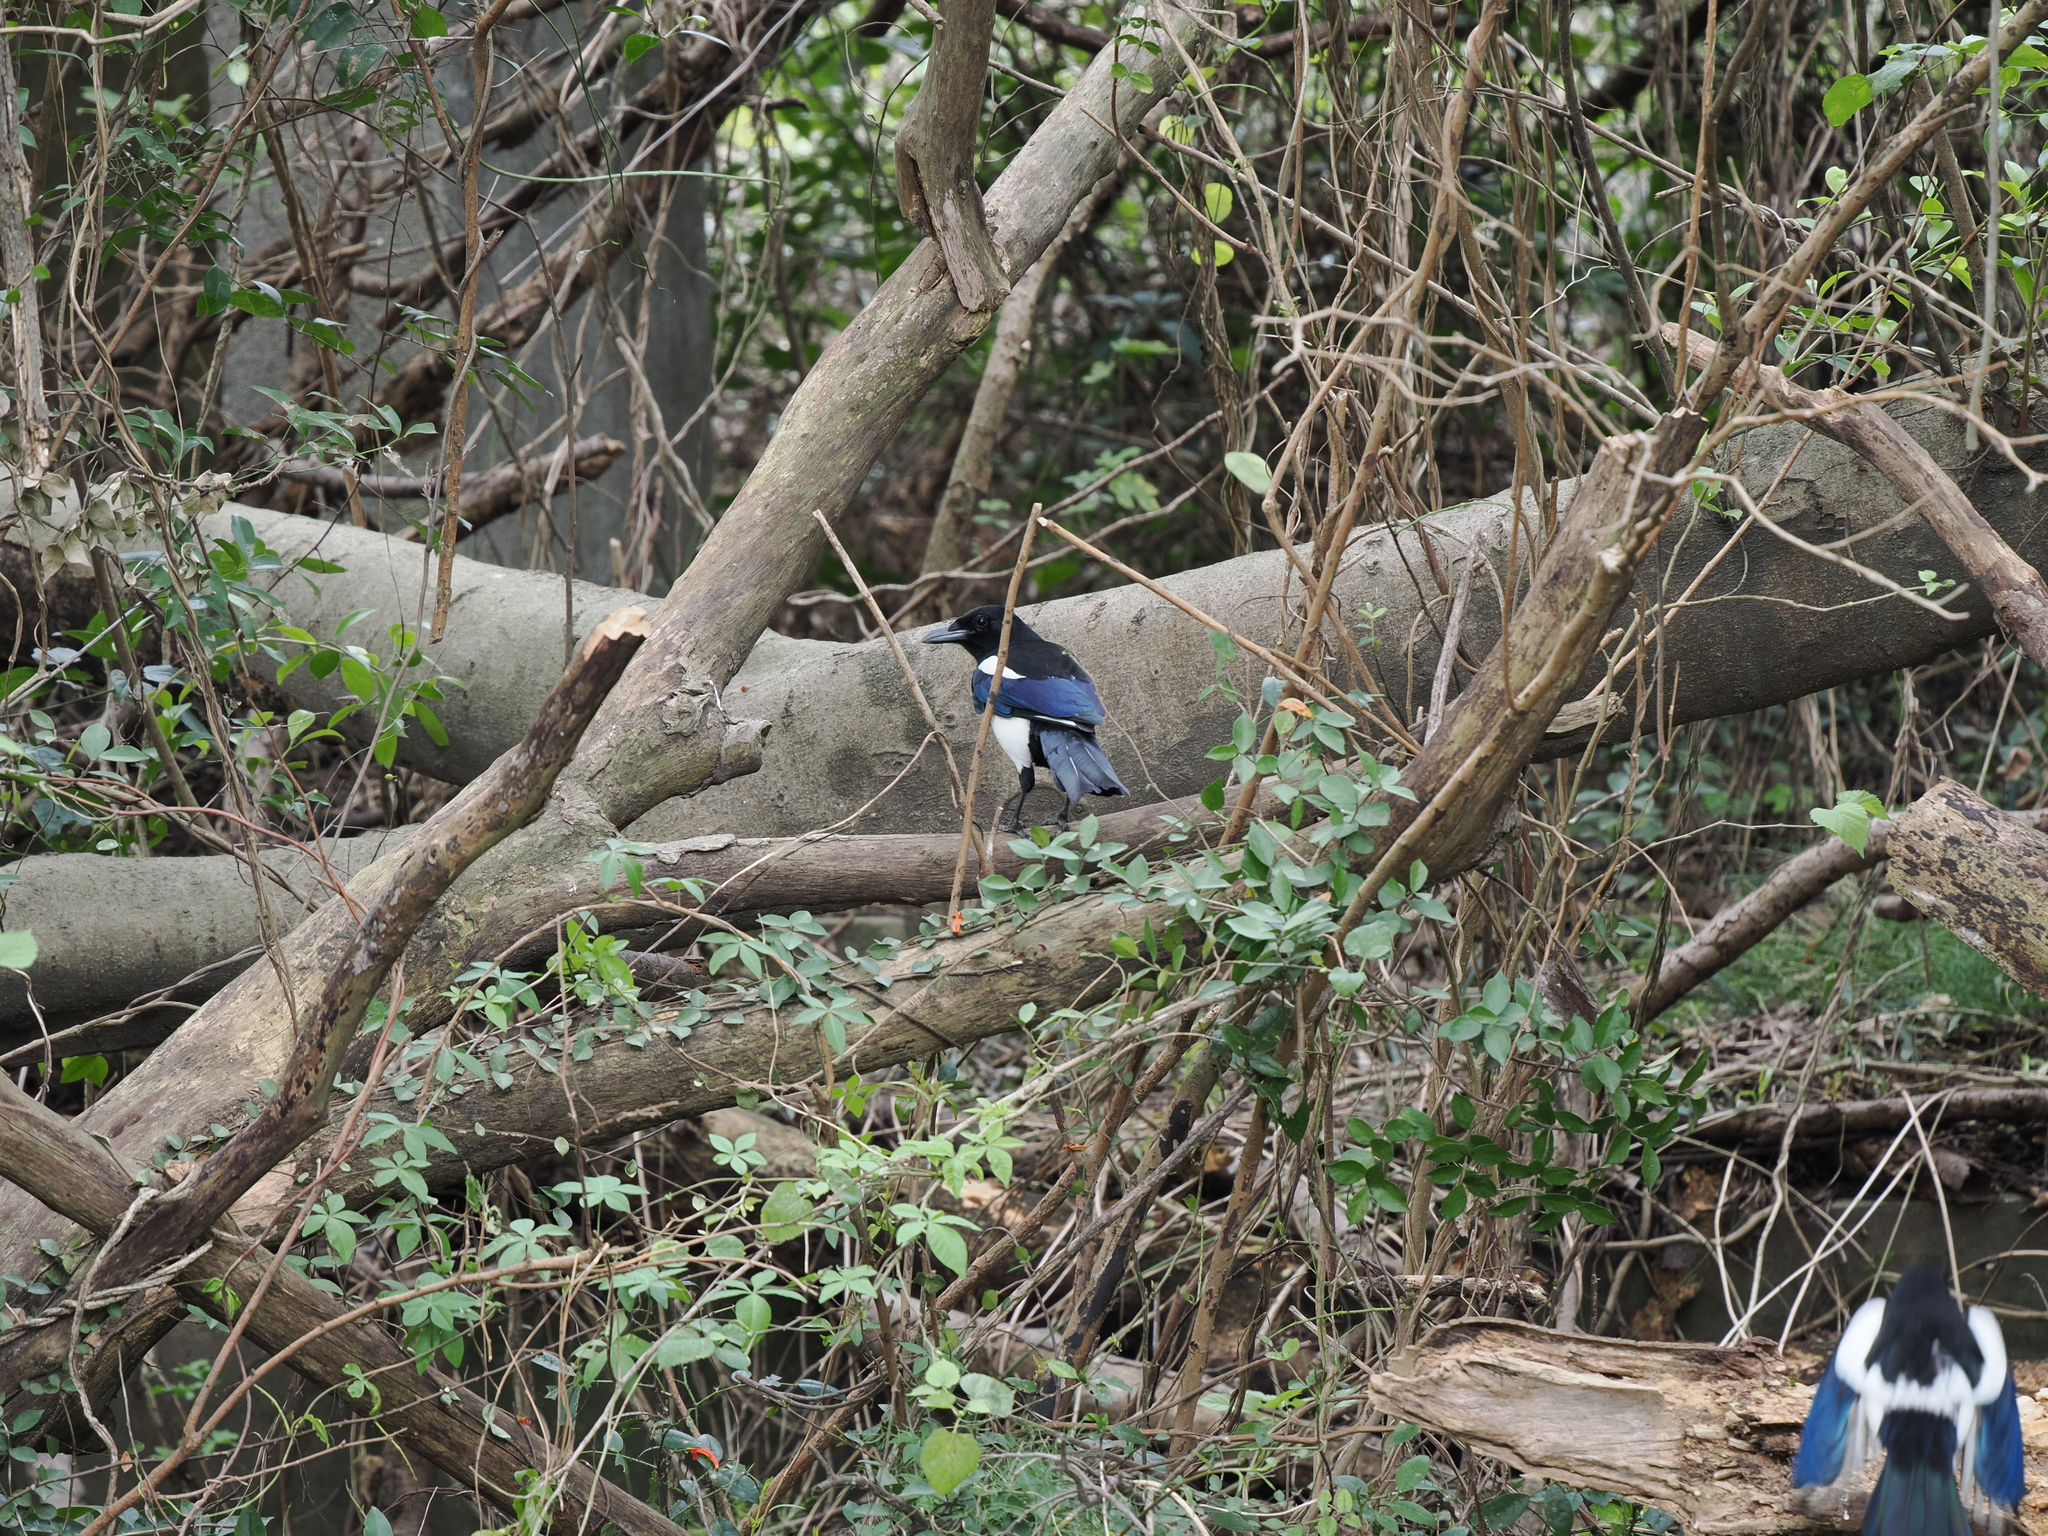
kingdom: Animalia
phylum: Chordata
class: Aves
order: Passeriformes
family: Corvidae
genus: Pica
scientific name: Pica serica
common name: Oriental magpie
